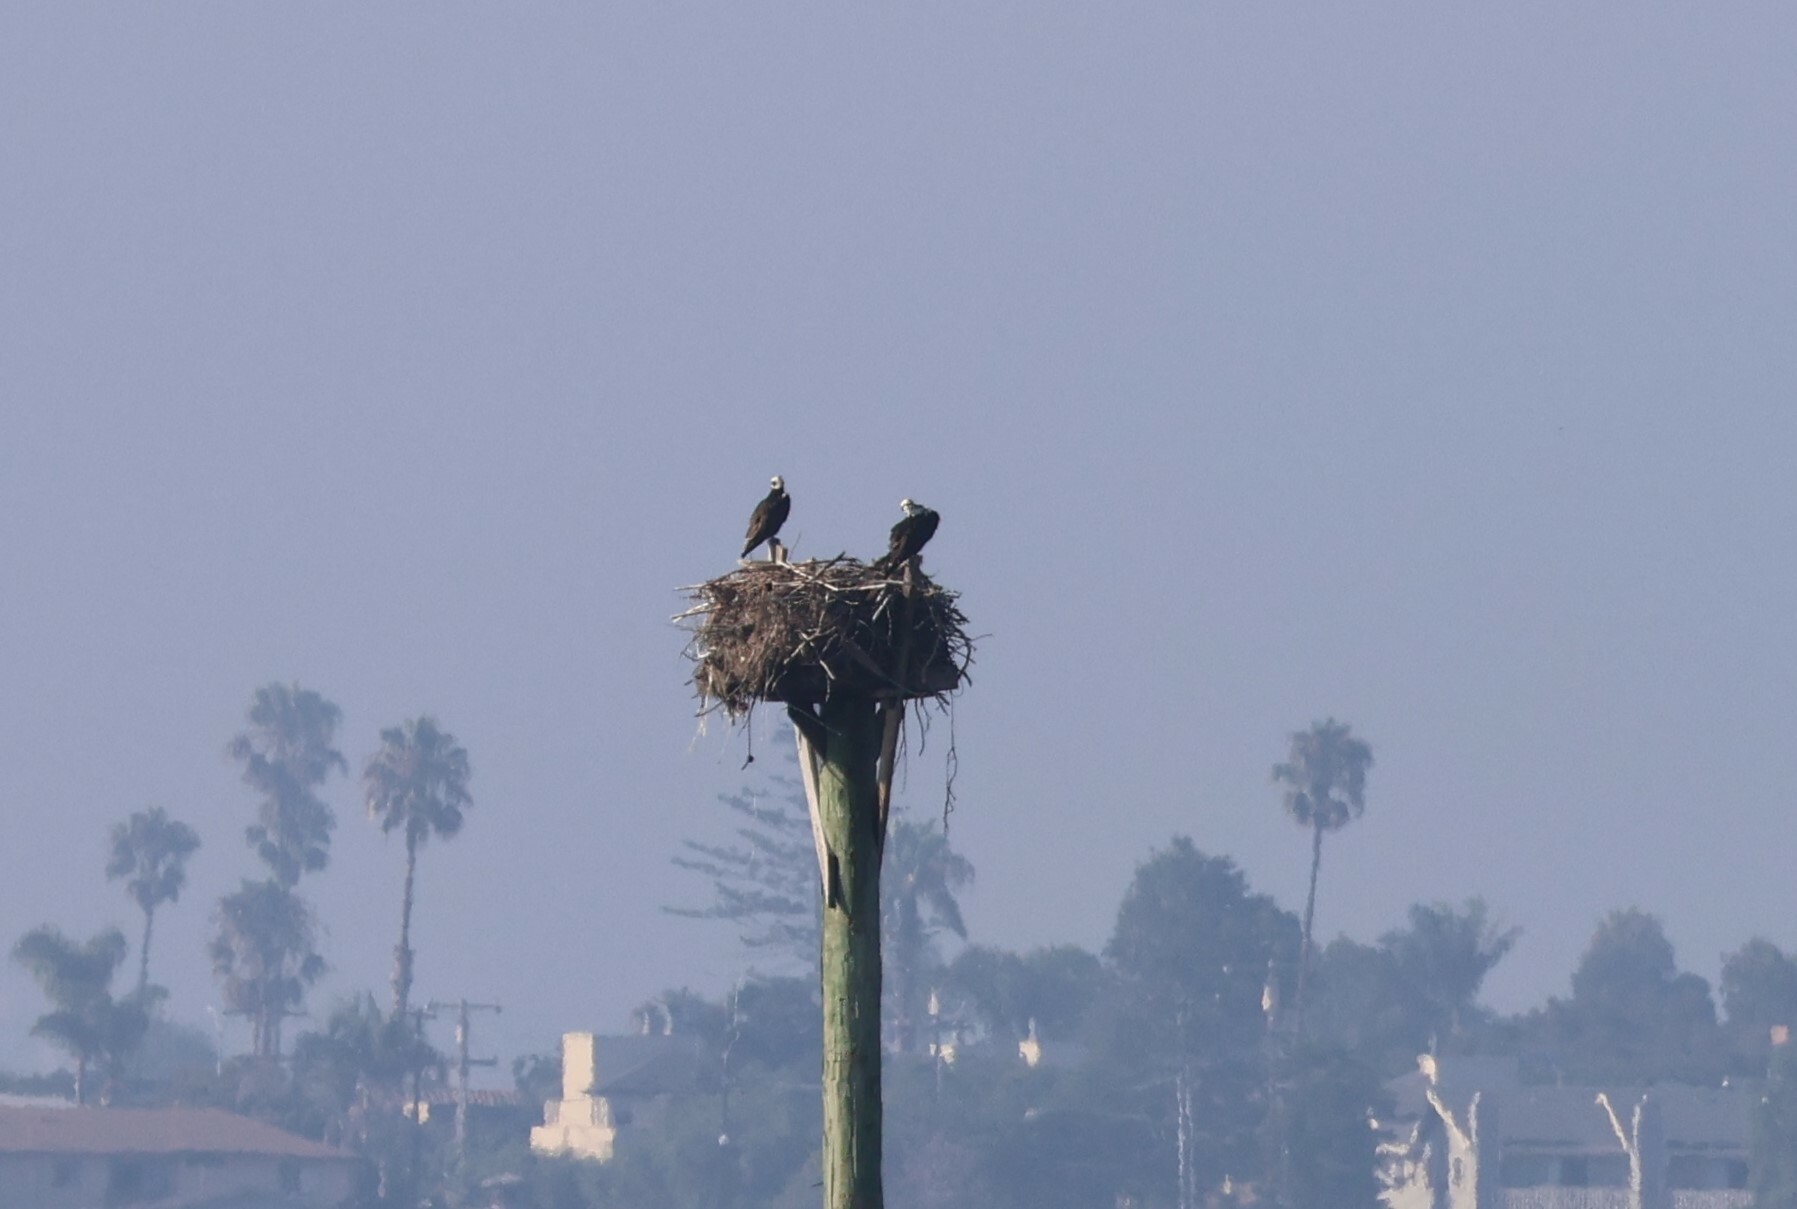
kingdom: Animalia
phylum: Chordata
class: Aves
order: Accipitriformes
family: Pandionidae
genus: Pandion
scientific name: Pandion haliaetus
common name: Osprey
